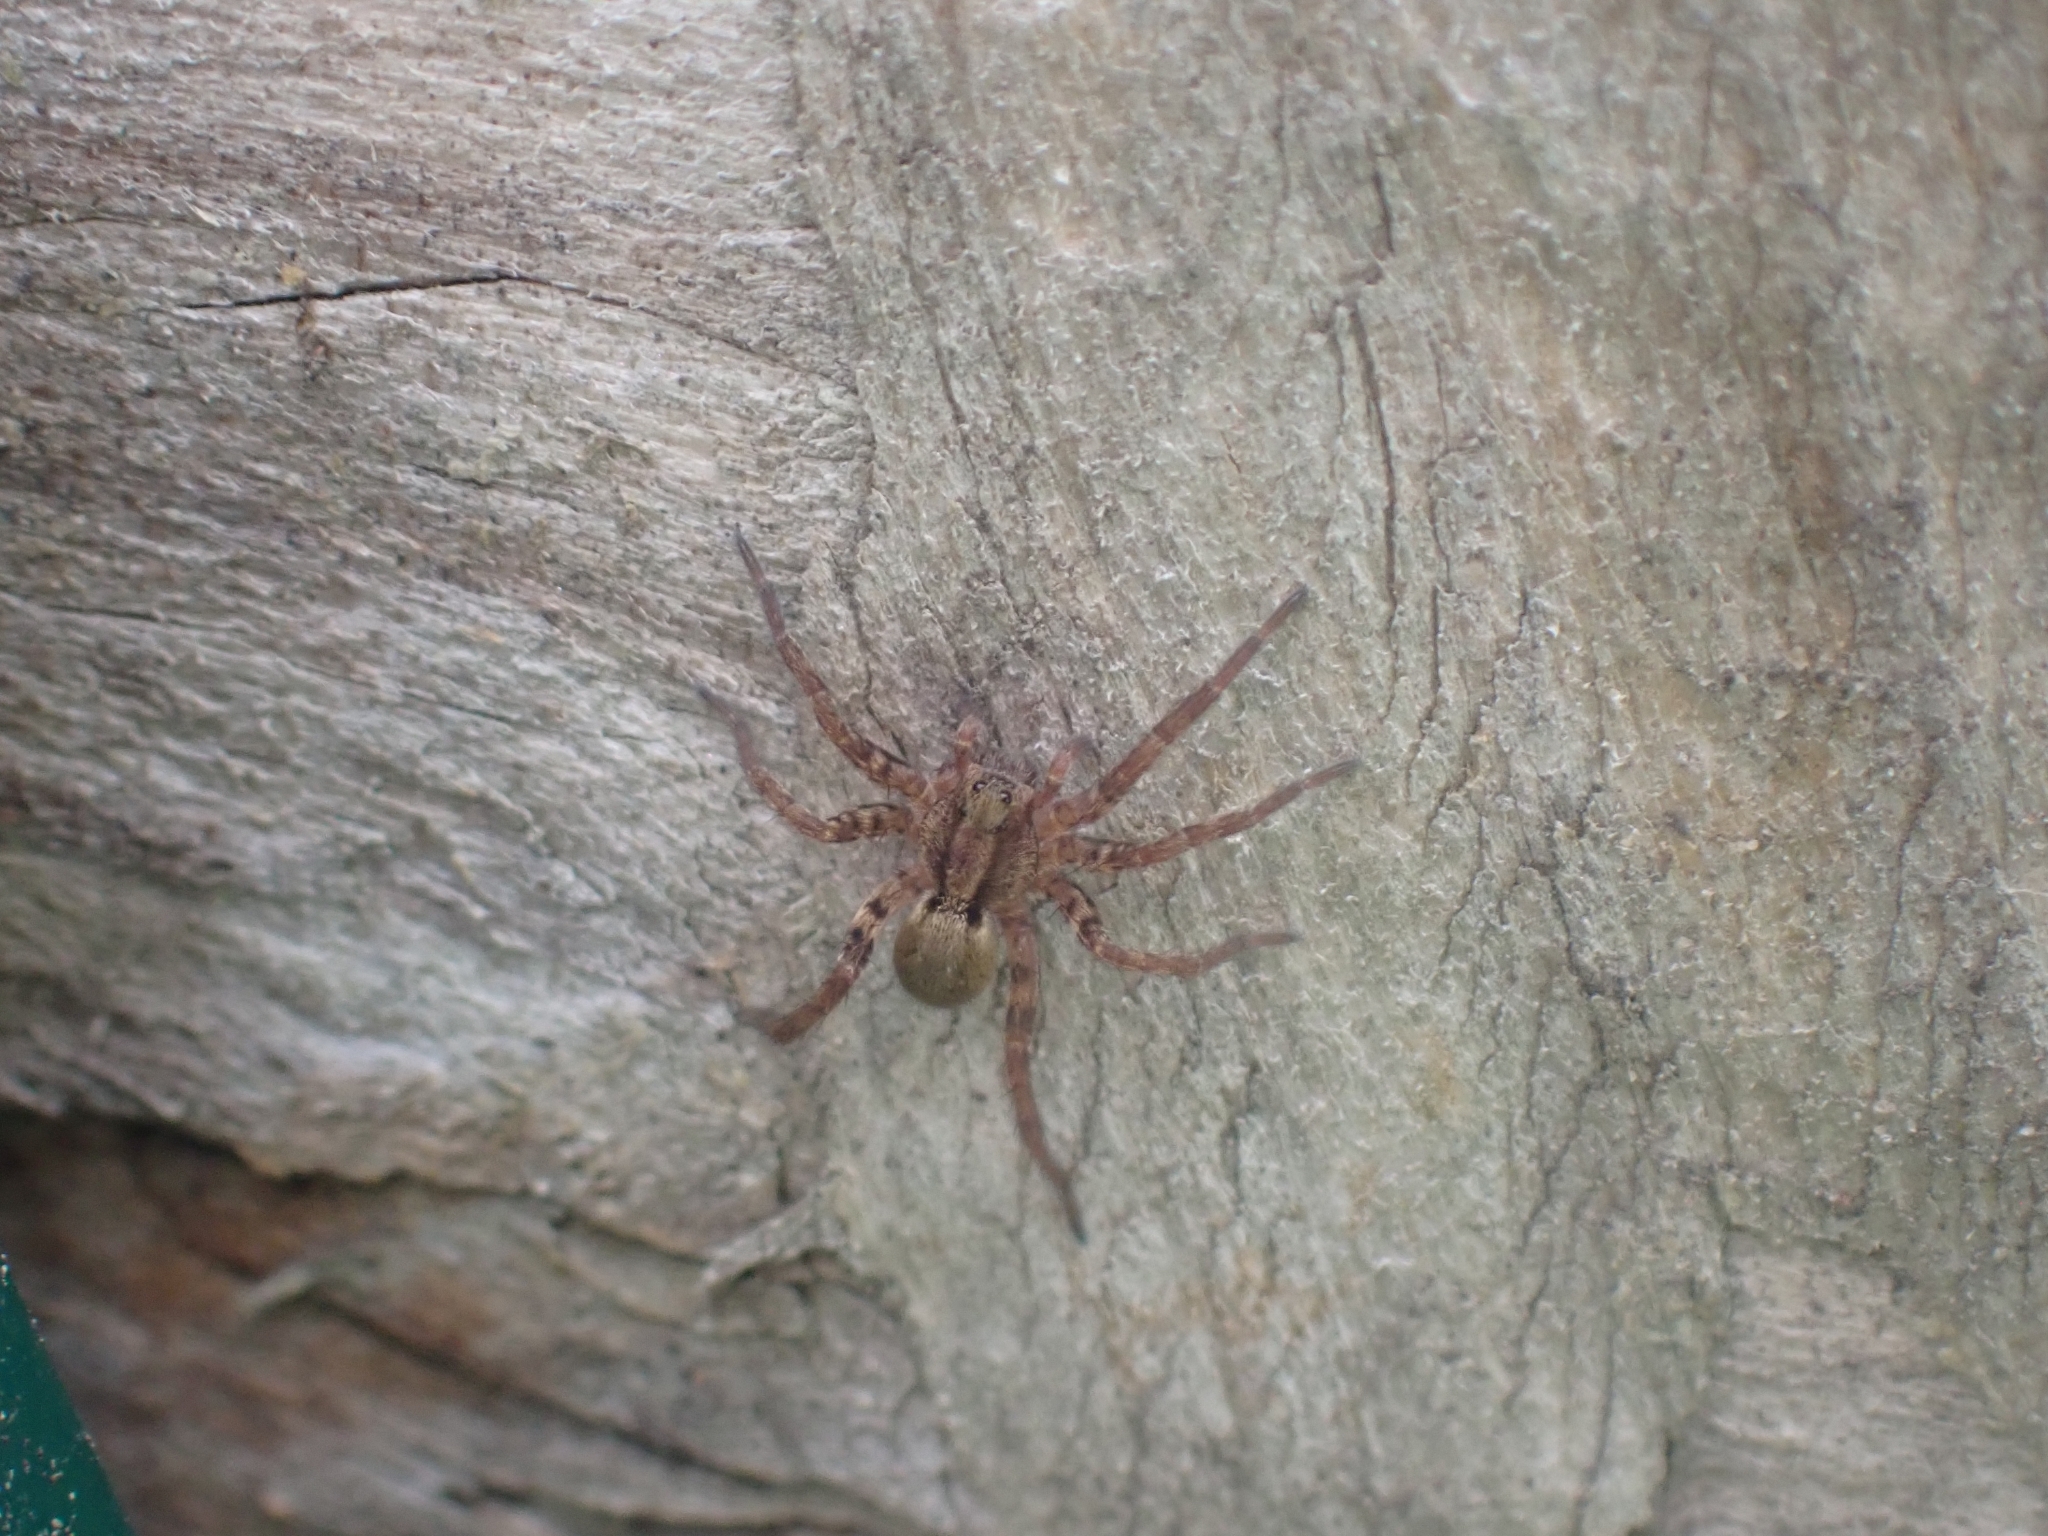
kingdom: Animalia
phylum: Arthropoda
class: Arachnida
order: Araneae
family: Lycosidae
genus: Alopecosa
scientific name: Alopecosa pulverulenta
